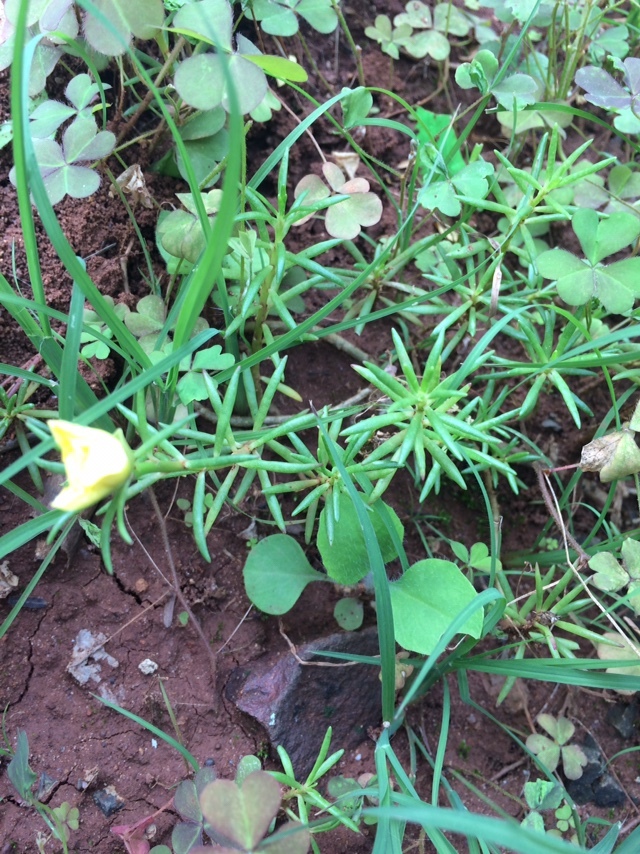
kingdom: Plantae
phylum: Tracheophyta
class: Magnoliopsida
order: Caryophyllales
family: Portulacaceae
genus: Portulaca
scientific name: Portulaca grandiflora
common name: Moss-rose
